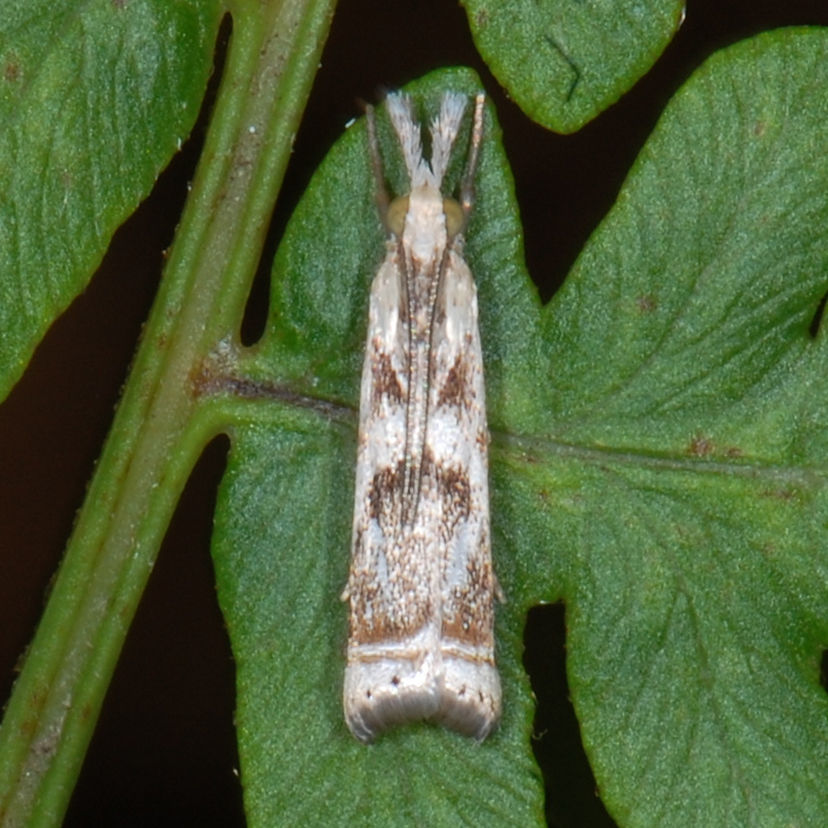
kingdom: Animalia
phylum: Arthropoda
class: Insecta
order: Lepidoptera
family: Crambidae
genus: Microcrambus
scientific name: Microcrambus elegans
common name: Elegant grass-veneer
